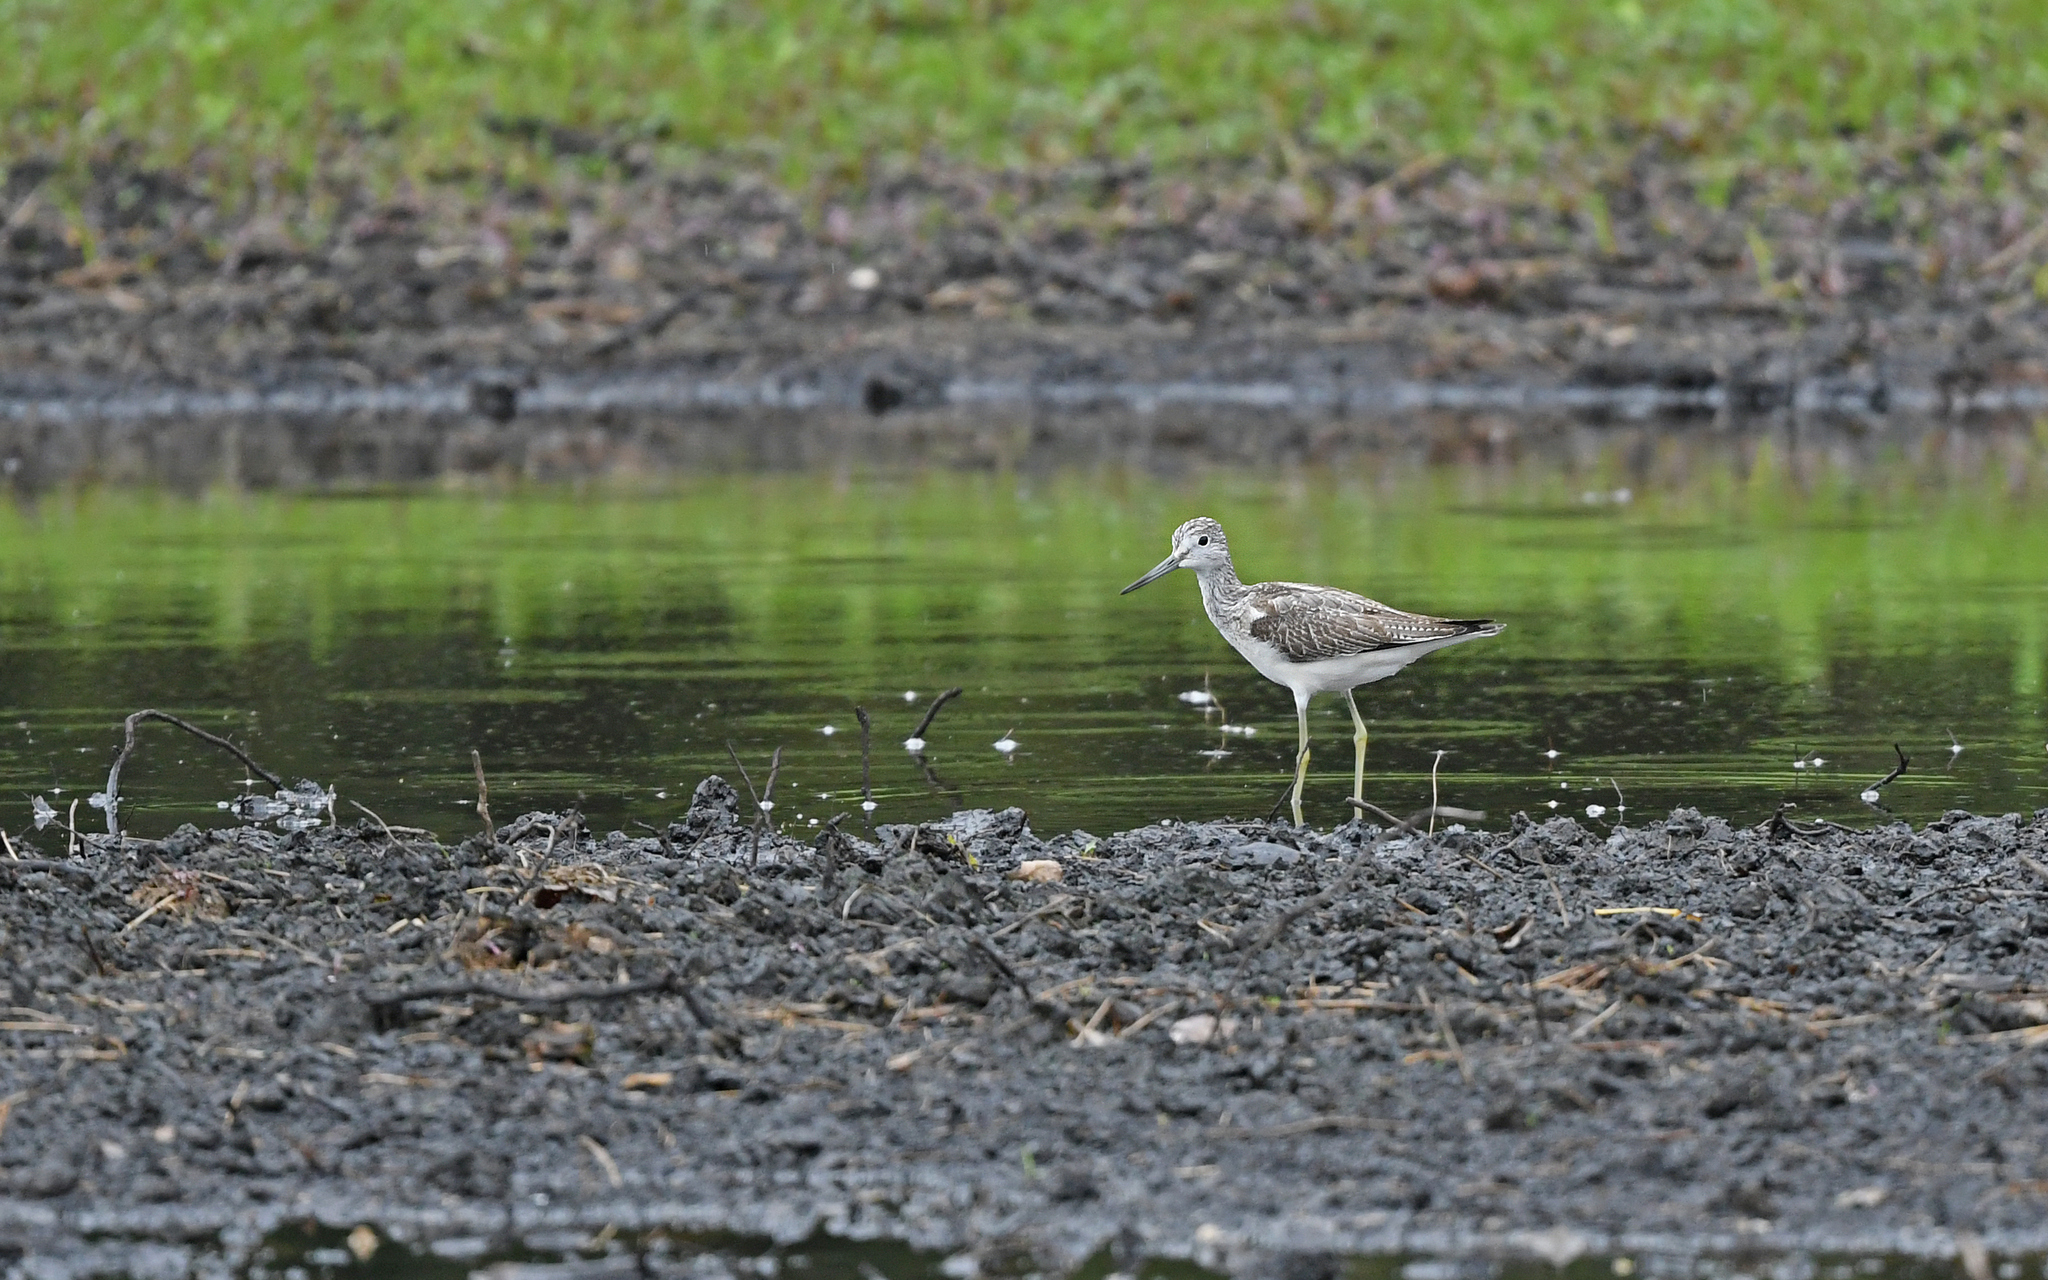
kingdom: Animalia
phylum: Chordata
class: Aves
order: Charadriiformes
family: Scolopacidae
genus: Tringa
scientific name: Tringa nebularia
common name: Common greenshank
